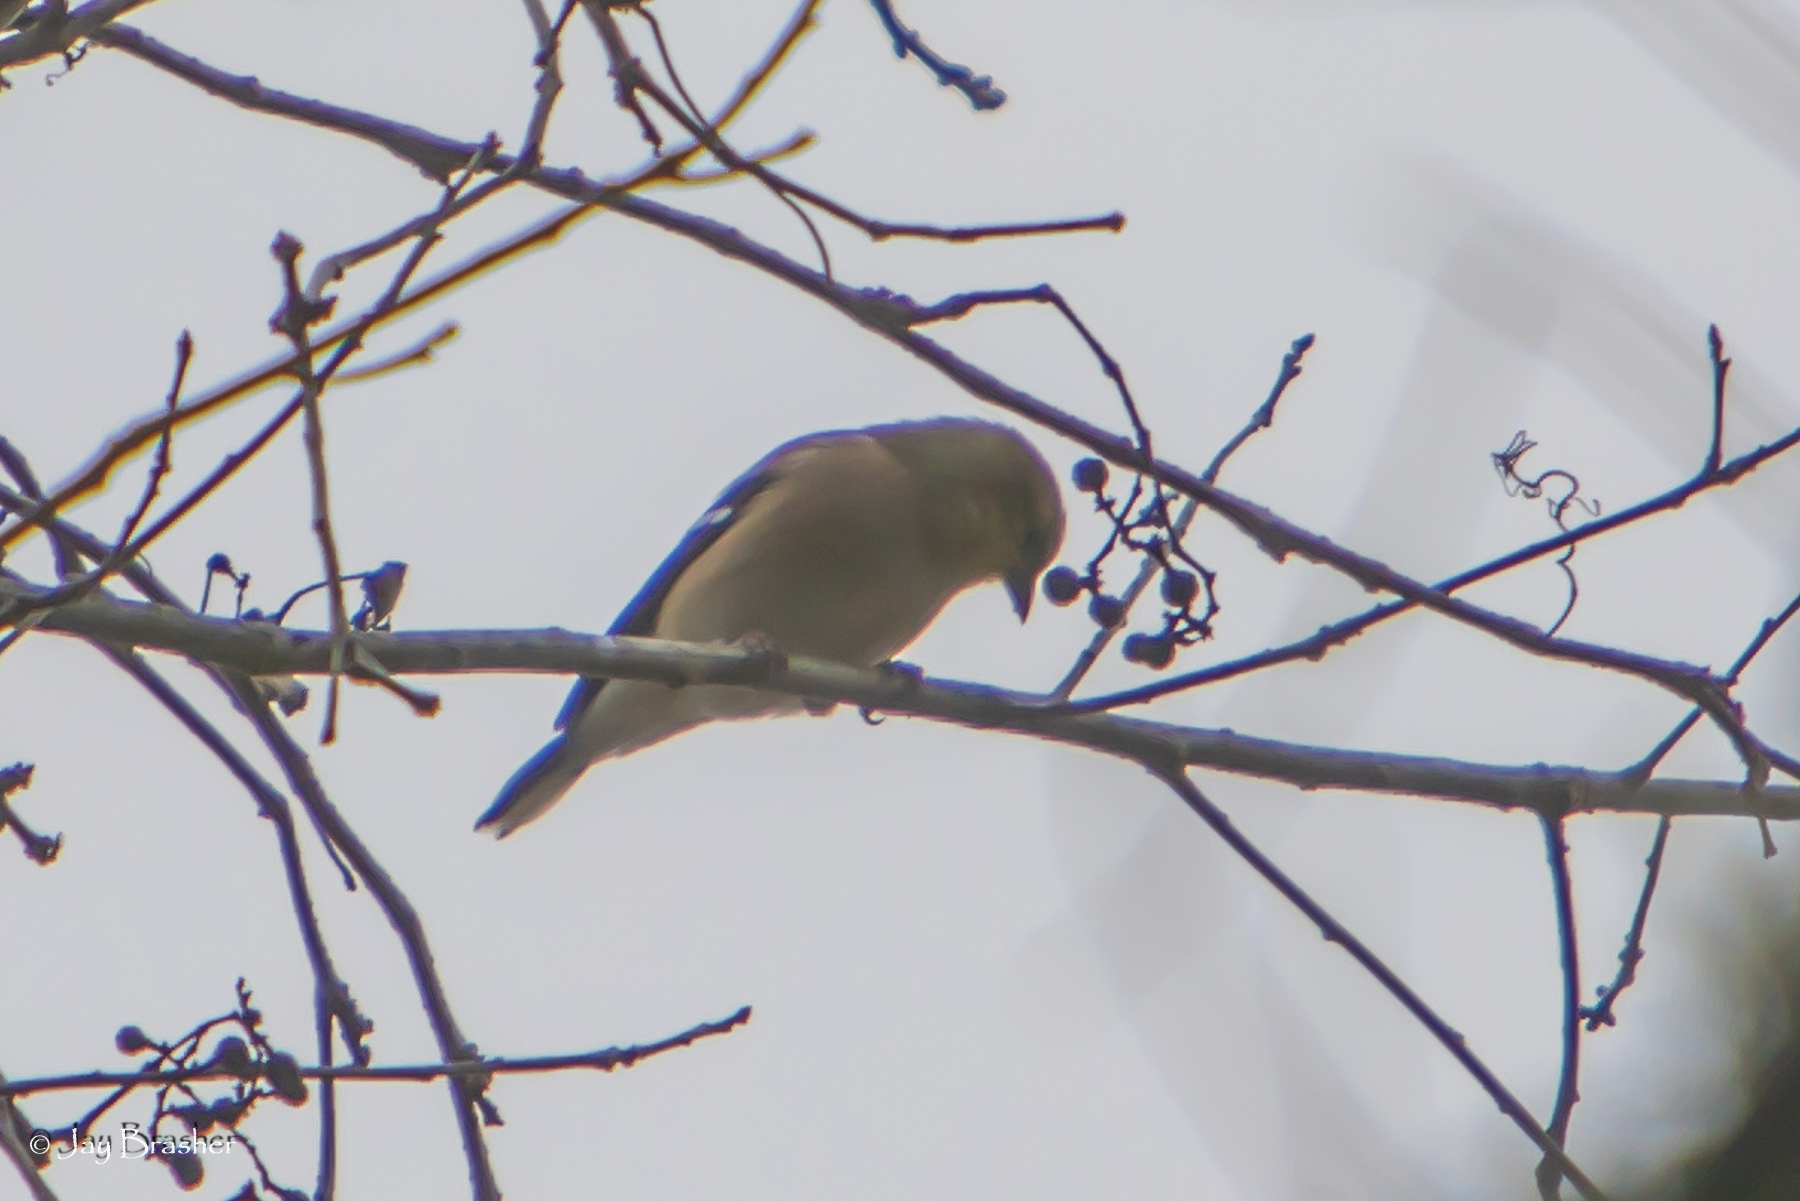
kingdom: Animalia
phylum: Chordata
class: Aves
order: Passeriformes
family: Fringillidae
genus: Spinus
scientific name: Spinus tristis
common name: American goldfinch
